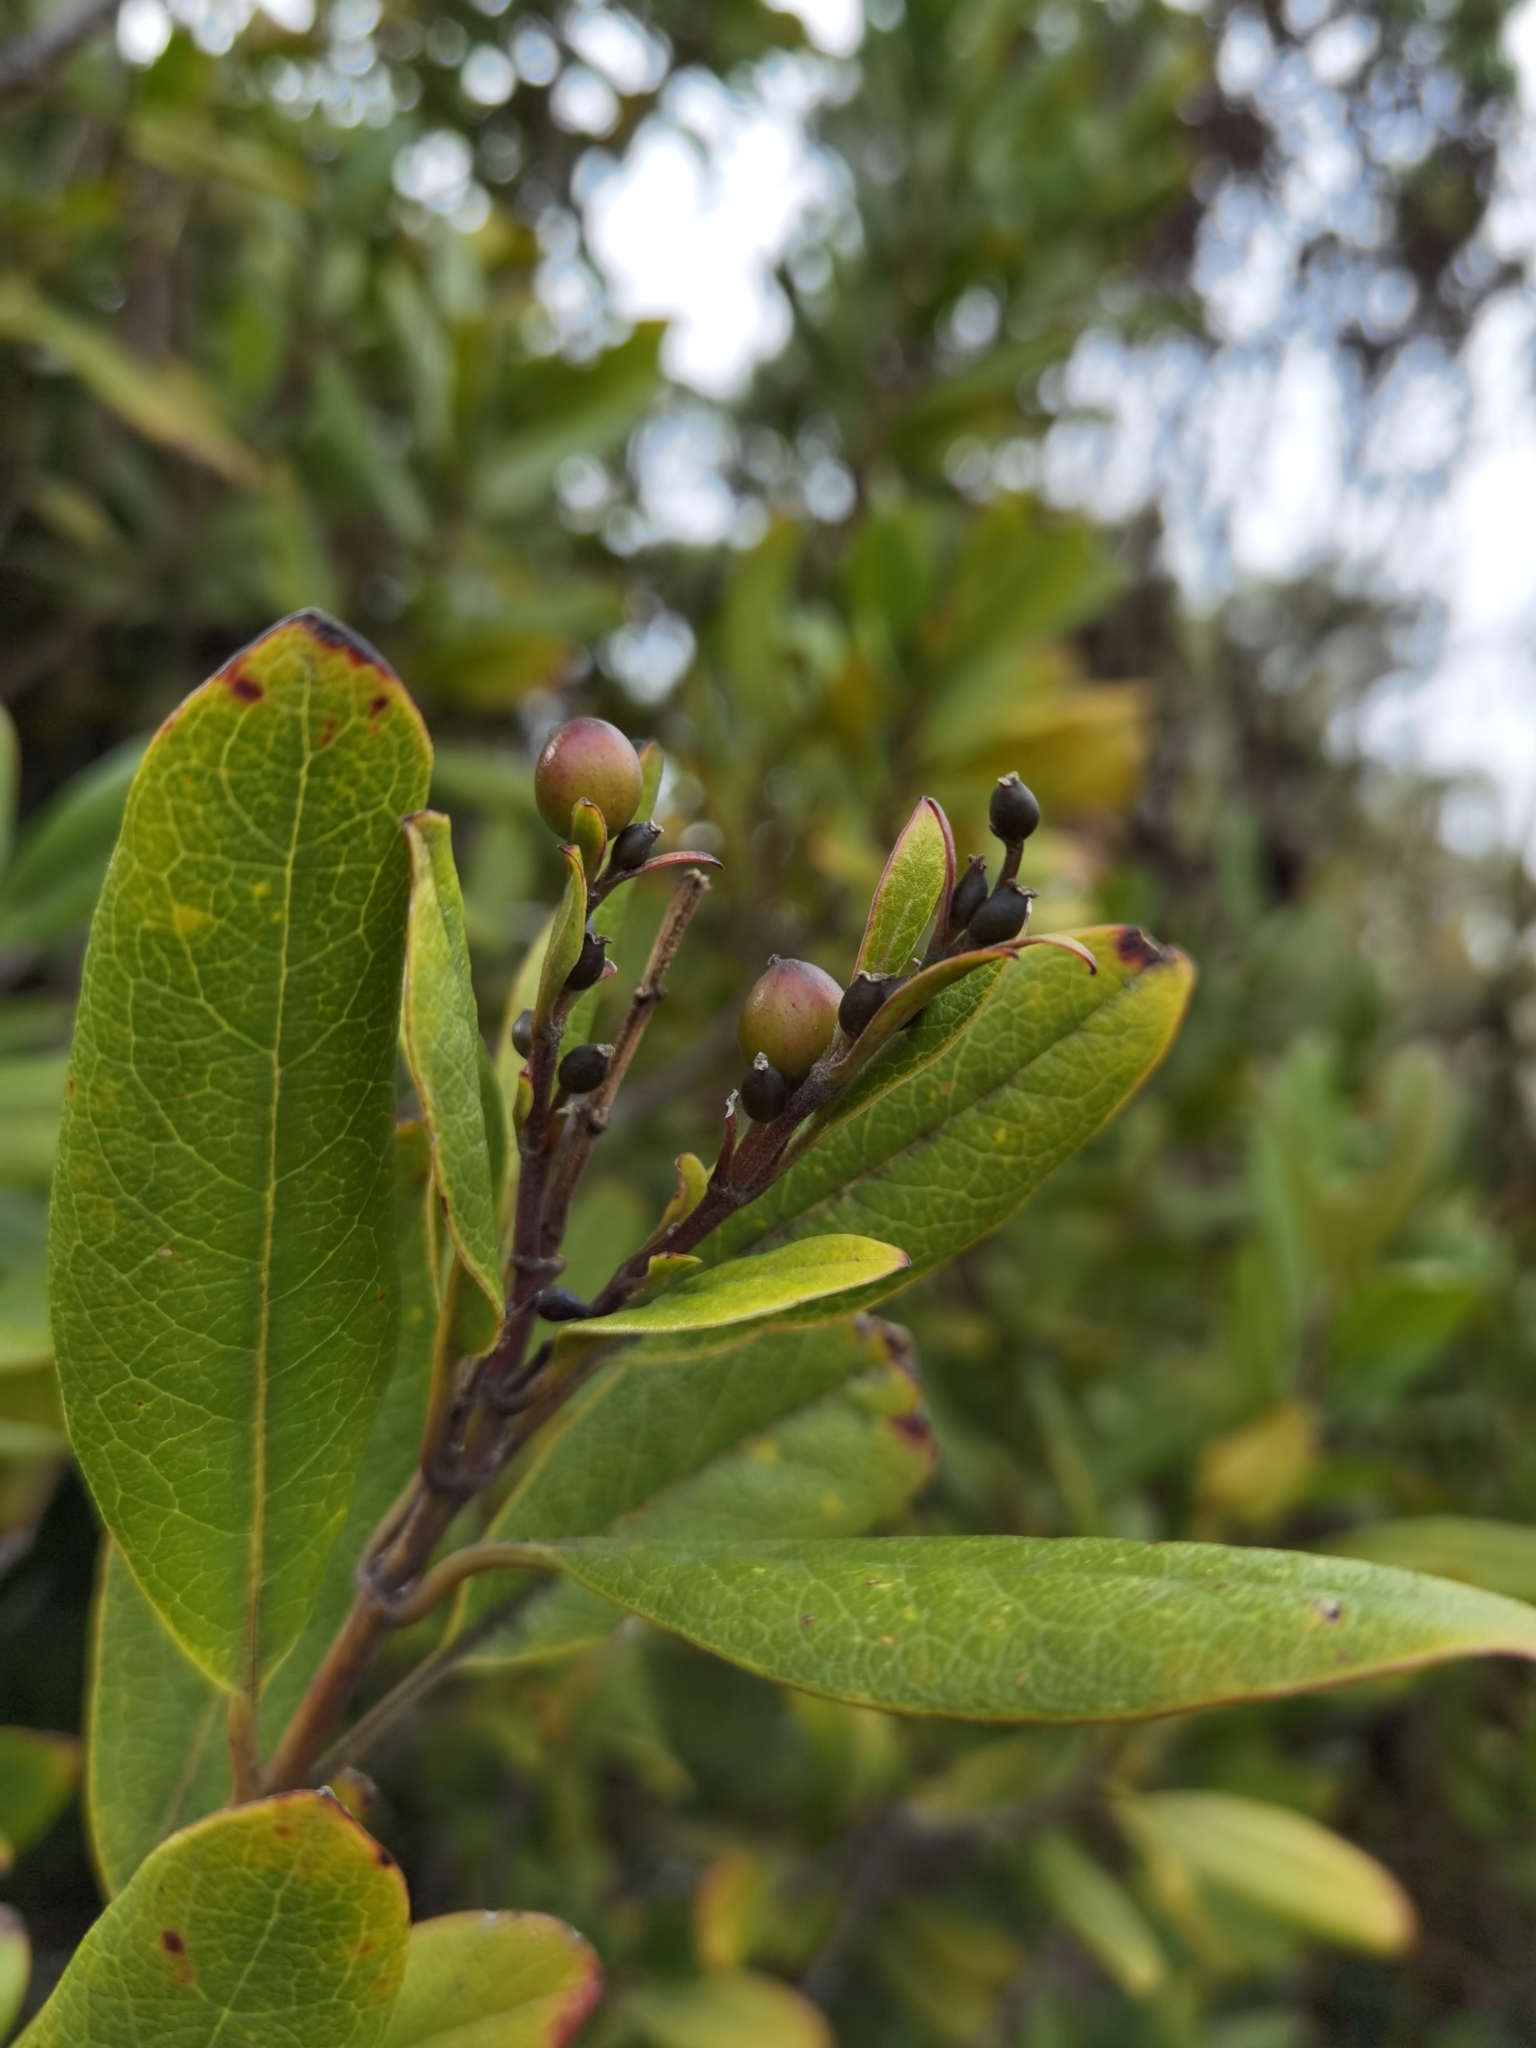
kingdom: Plantae
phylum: Tracheophyta
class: Magnoliopsida
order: Garryales
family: Garryaceae
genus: Garrya
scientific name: Garrya laurifolia
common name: Cuachichic
